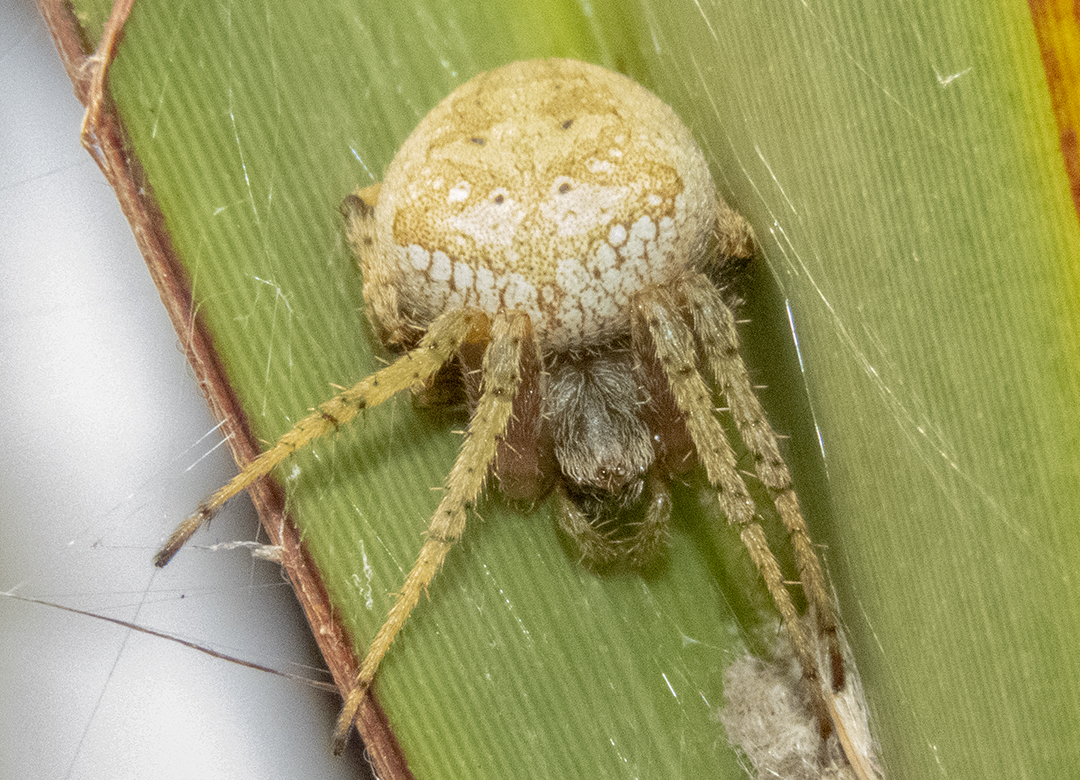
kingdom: Animalia
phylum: Arthropoda
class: Arachnida
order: Araneae
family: Araneidae
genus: Zealaranea
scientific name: Zealaranea crassa
